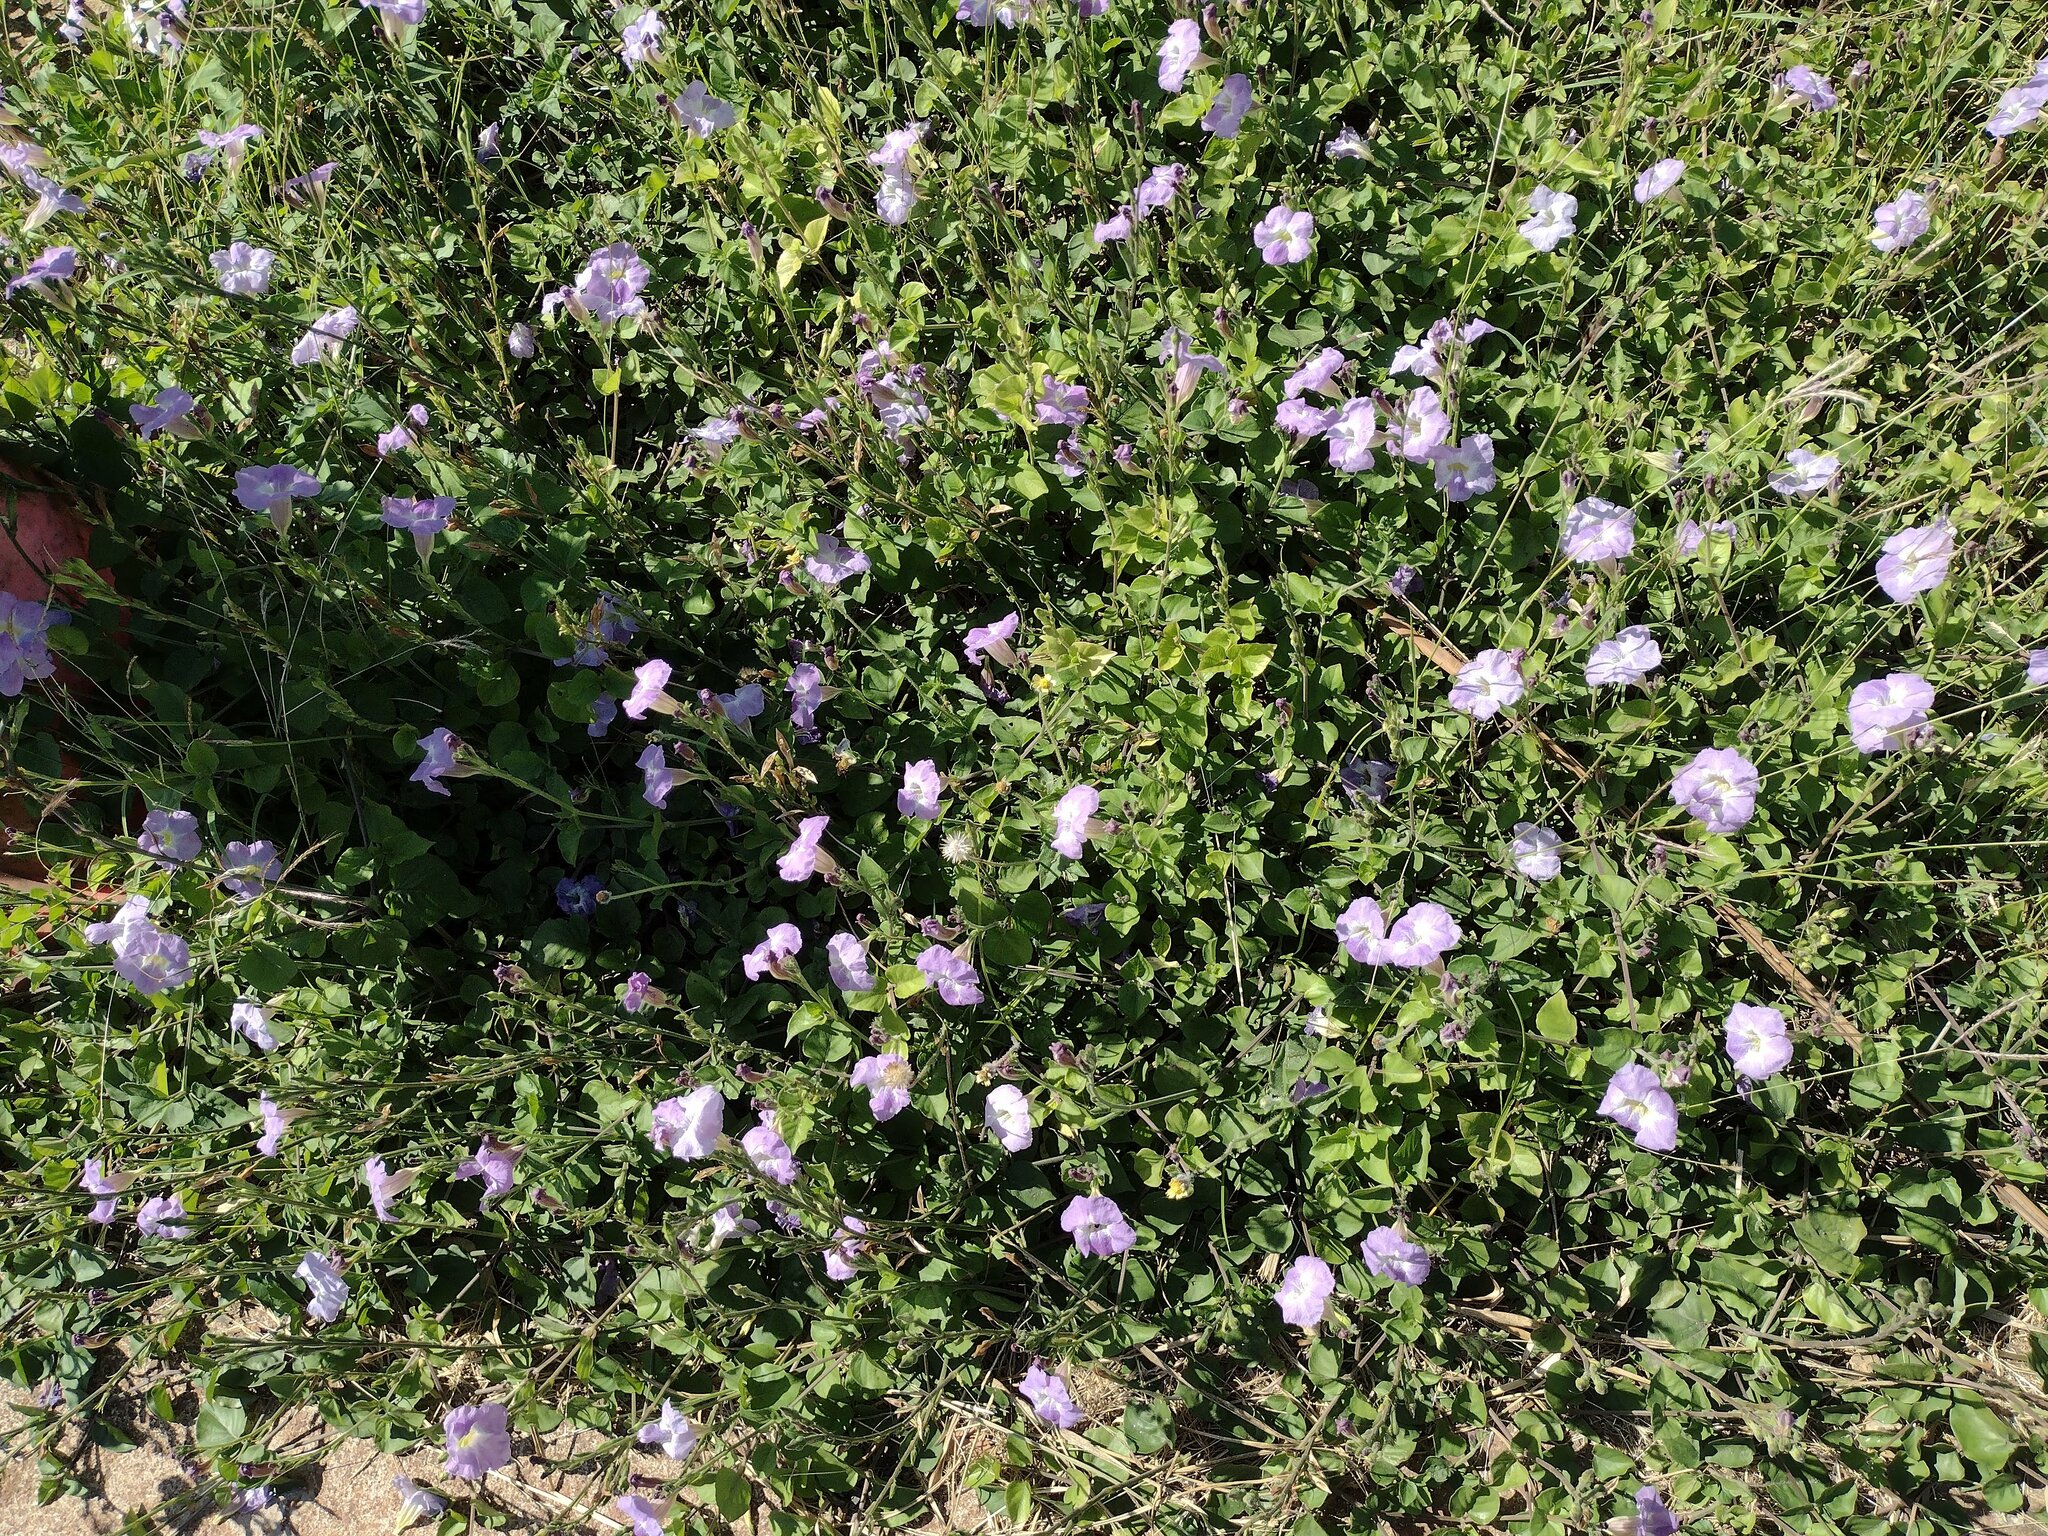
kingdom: Plantae
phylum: Tracheophyta
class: Magnoliopsida
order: Lamiales
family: Acanthaceae
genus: Asystasia
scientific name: Asystasia gangetica
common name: Chinese violet
